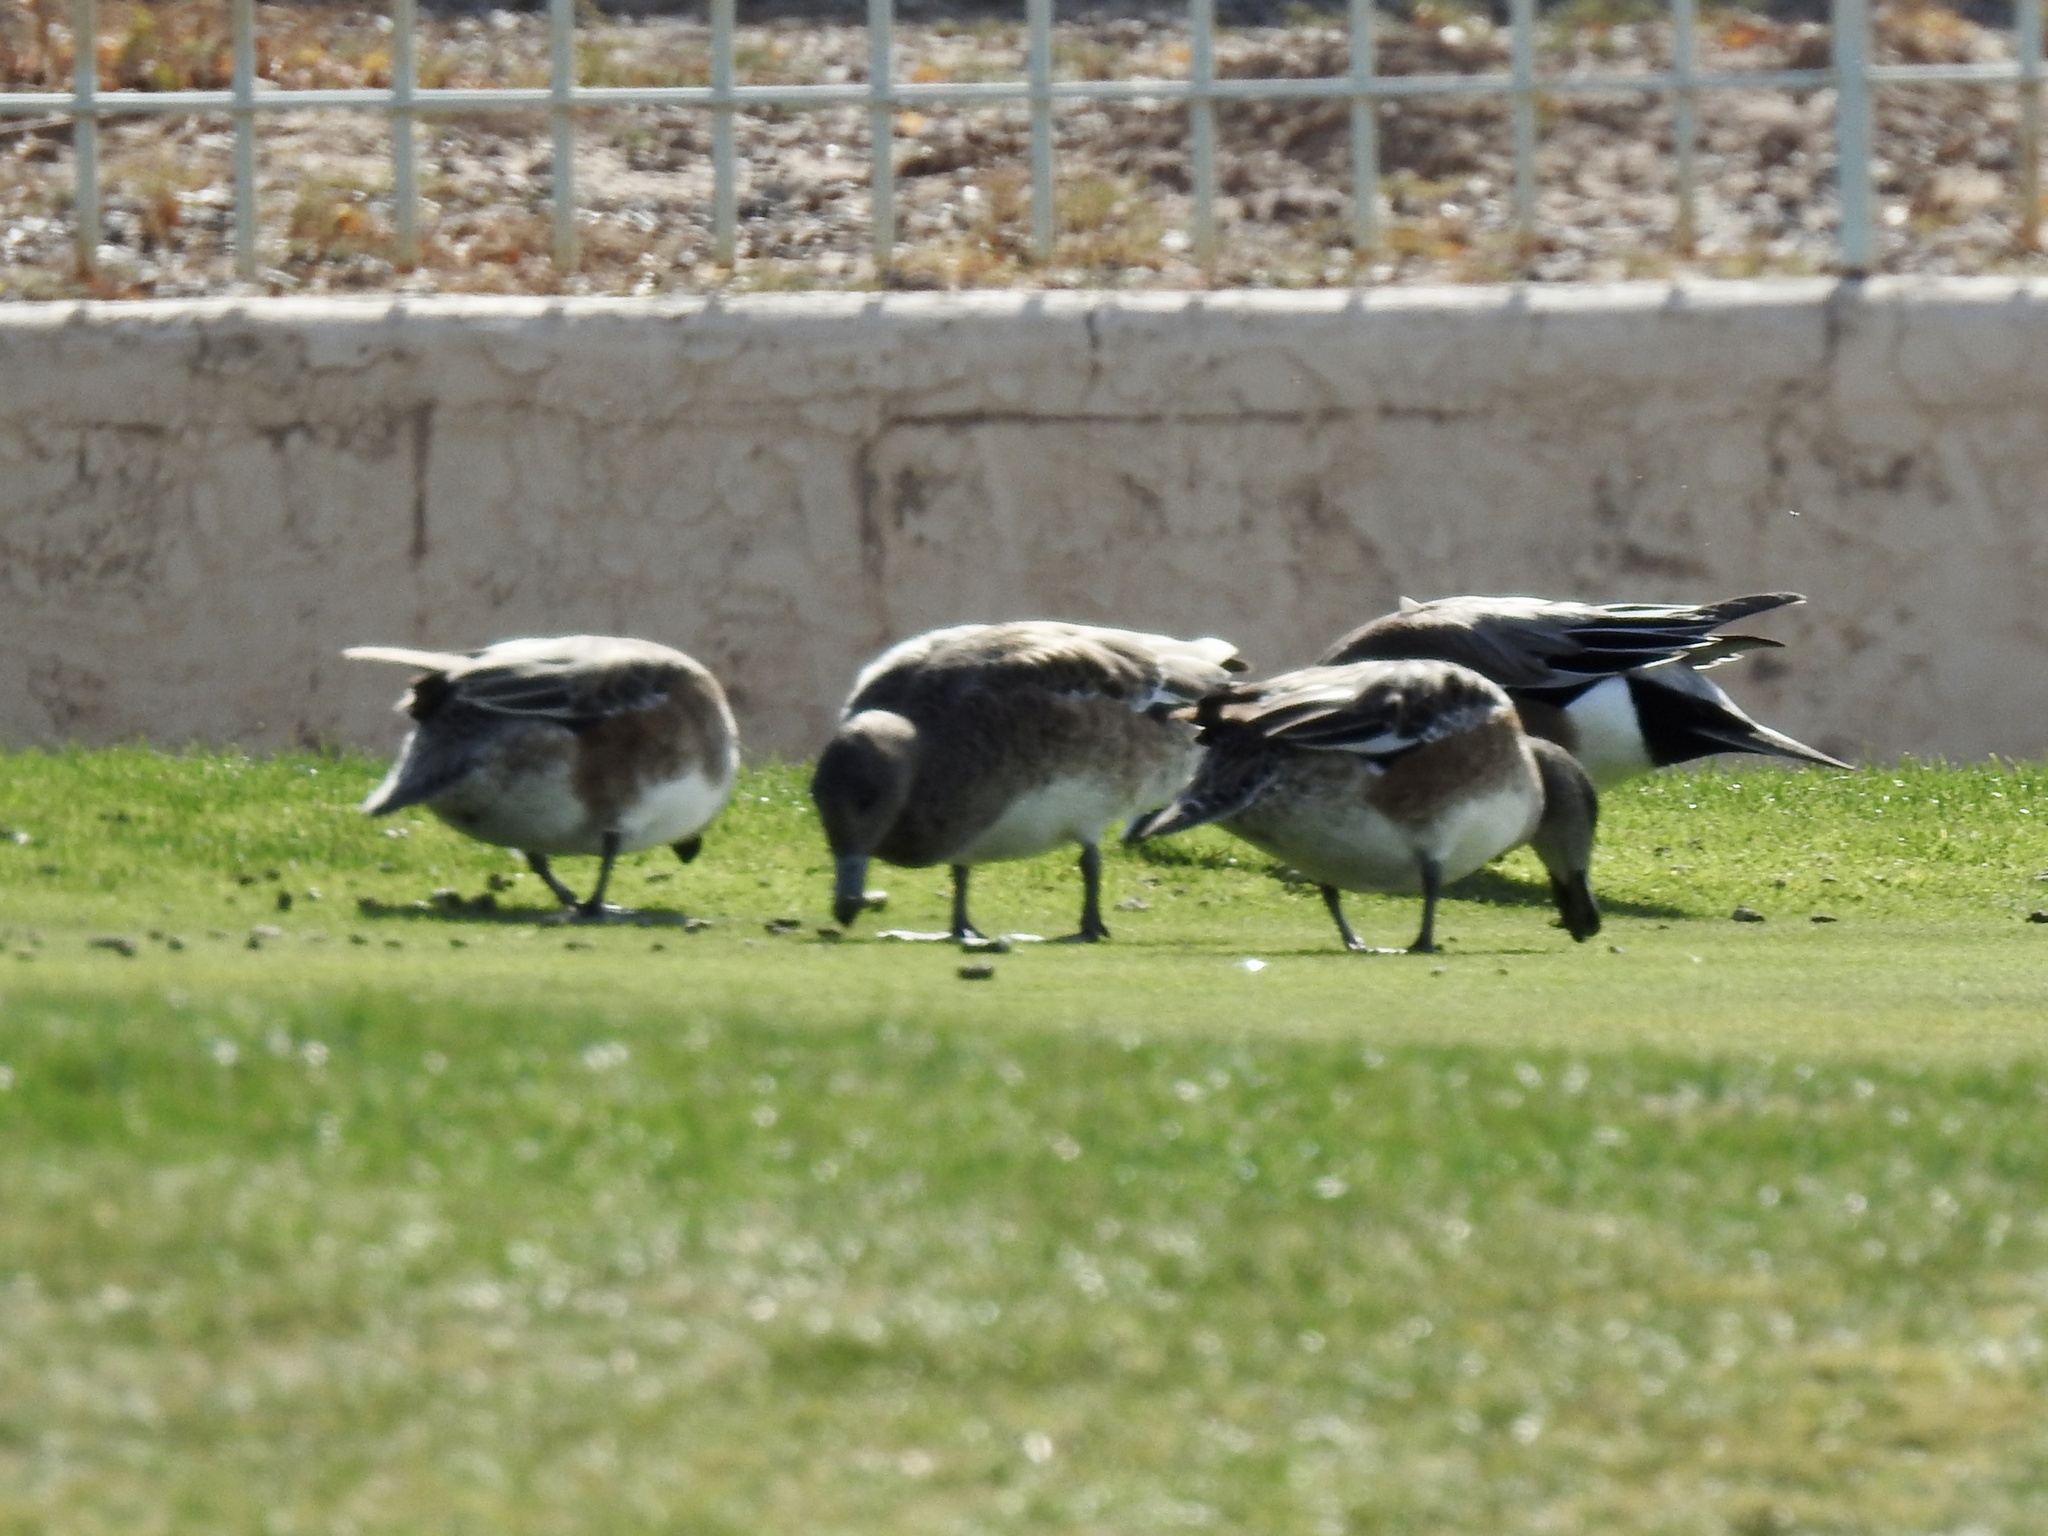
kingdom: Animalia
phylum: Chordata
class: Aves
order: Anseriformes
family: Anatidae
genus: Mareca
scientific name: Mareca americana
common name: American wigeon
